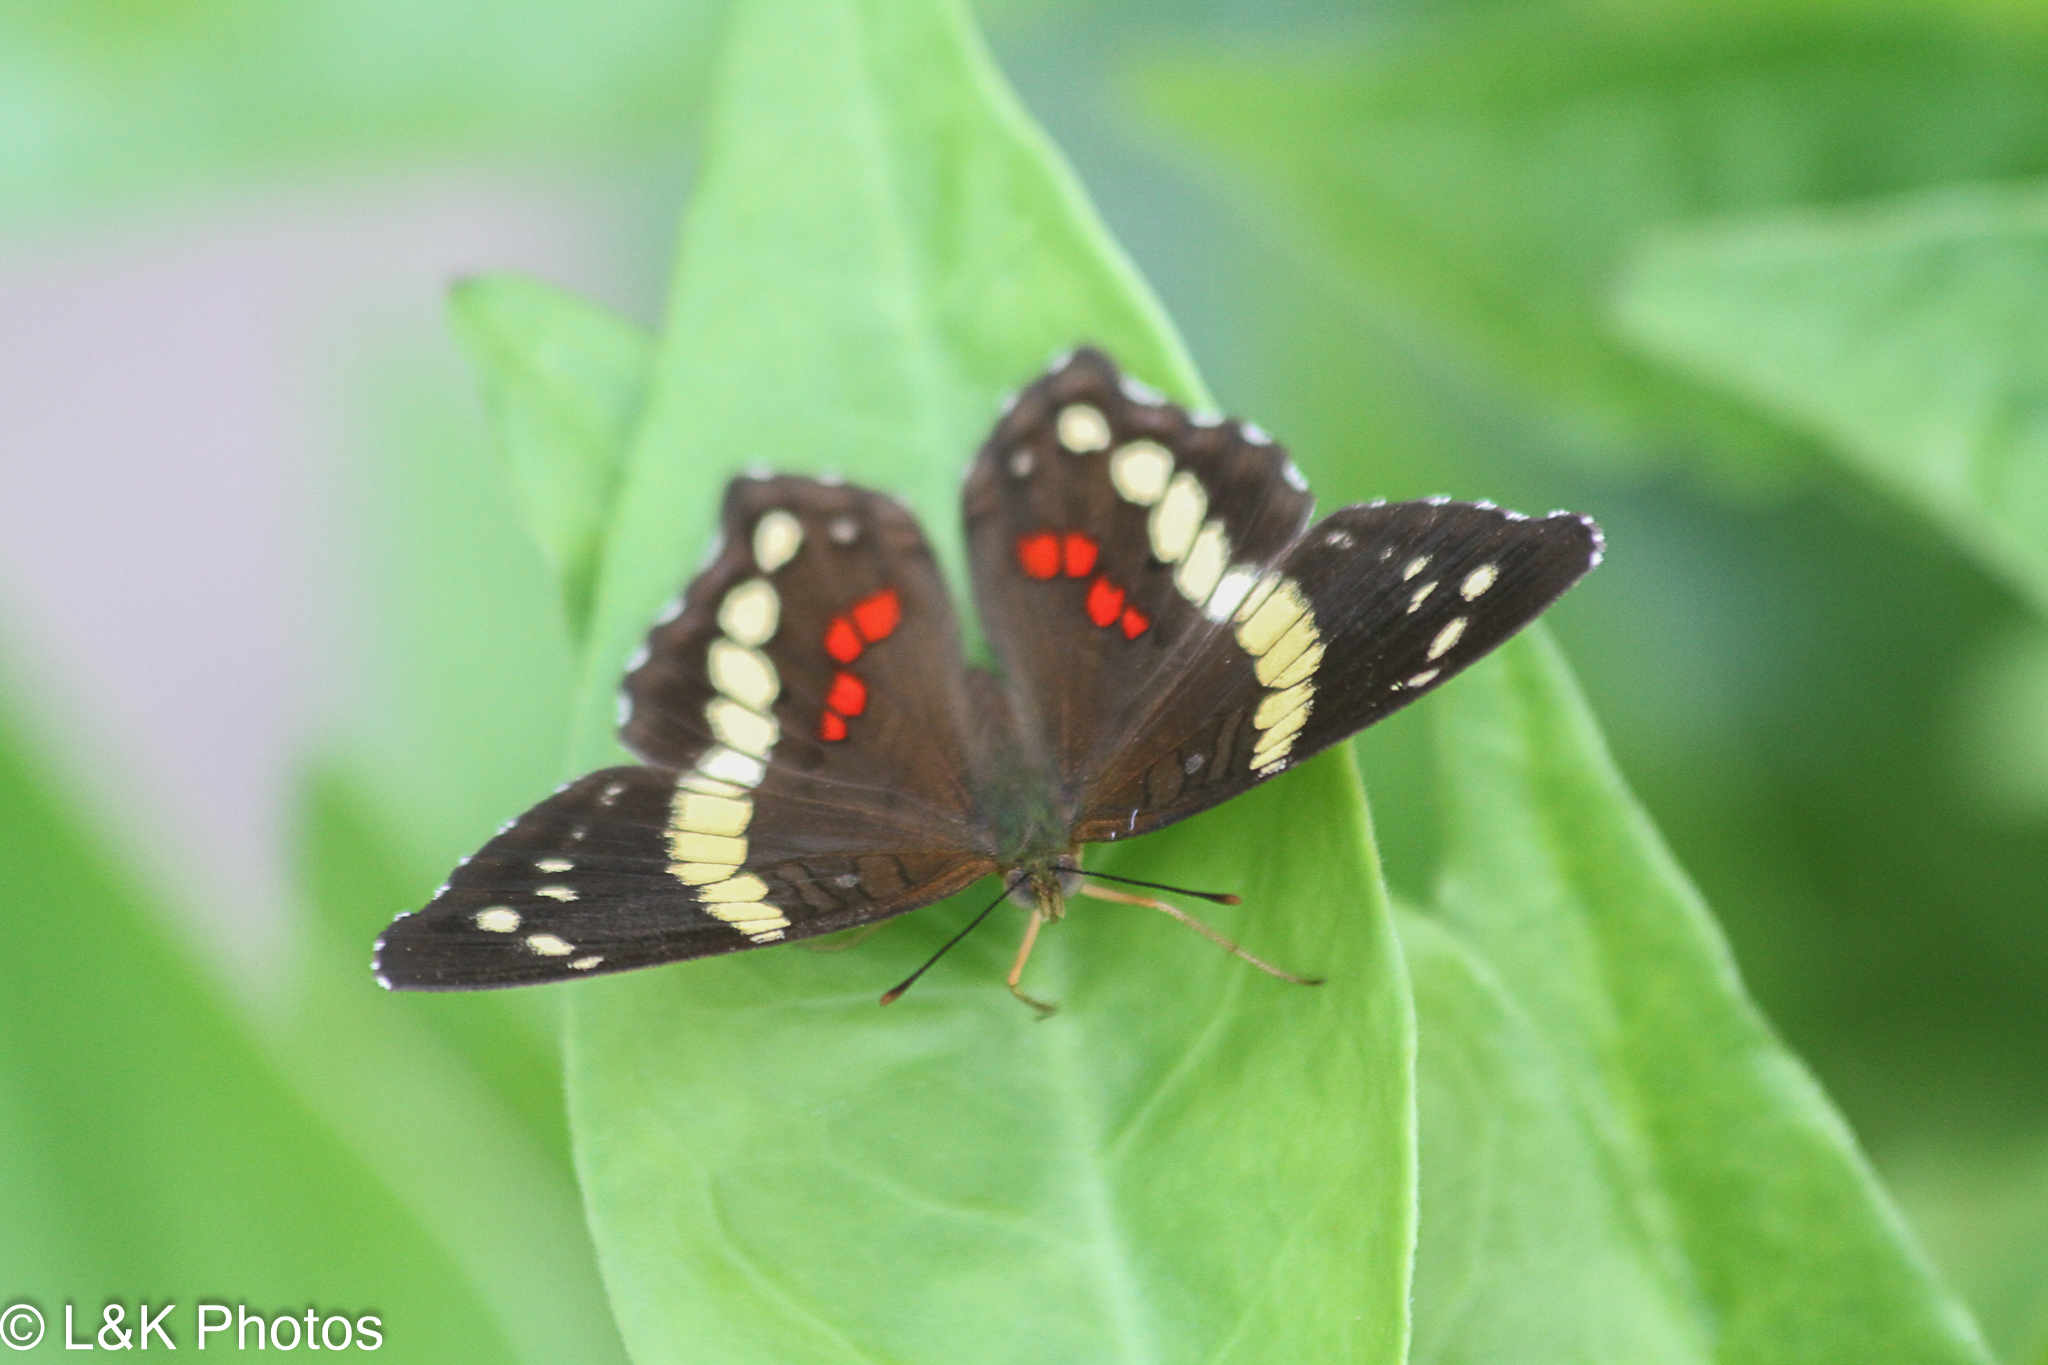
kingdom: Animalia
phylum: Arthropoda
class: Insecta
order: Lepidoptera
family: Nymphalidae
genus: Anartia
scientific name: Anartia fatima
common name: Banded peacock
